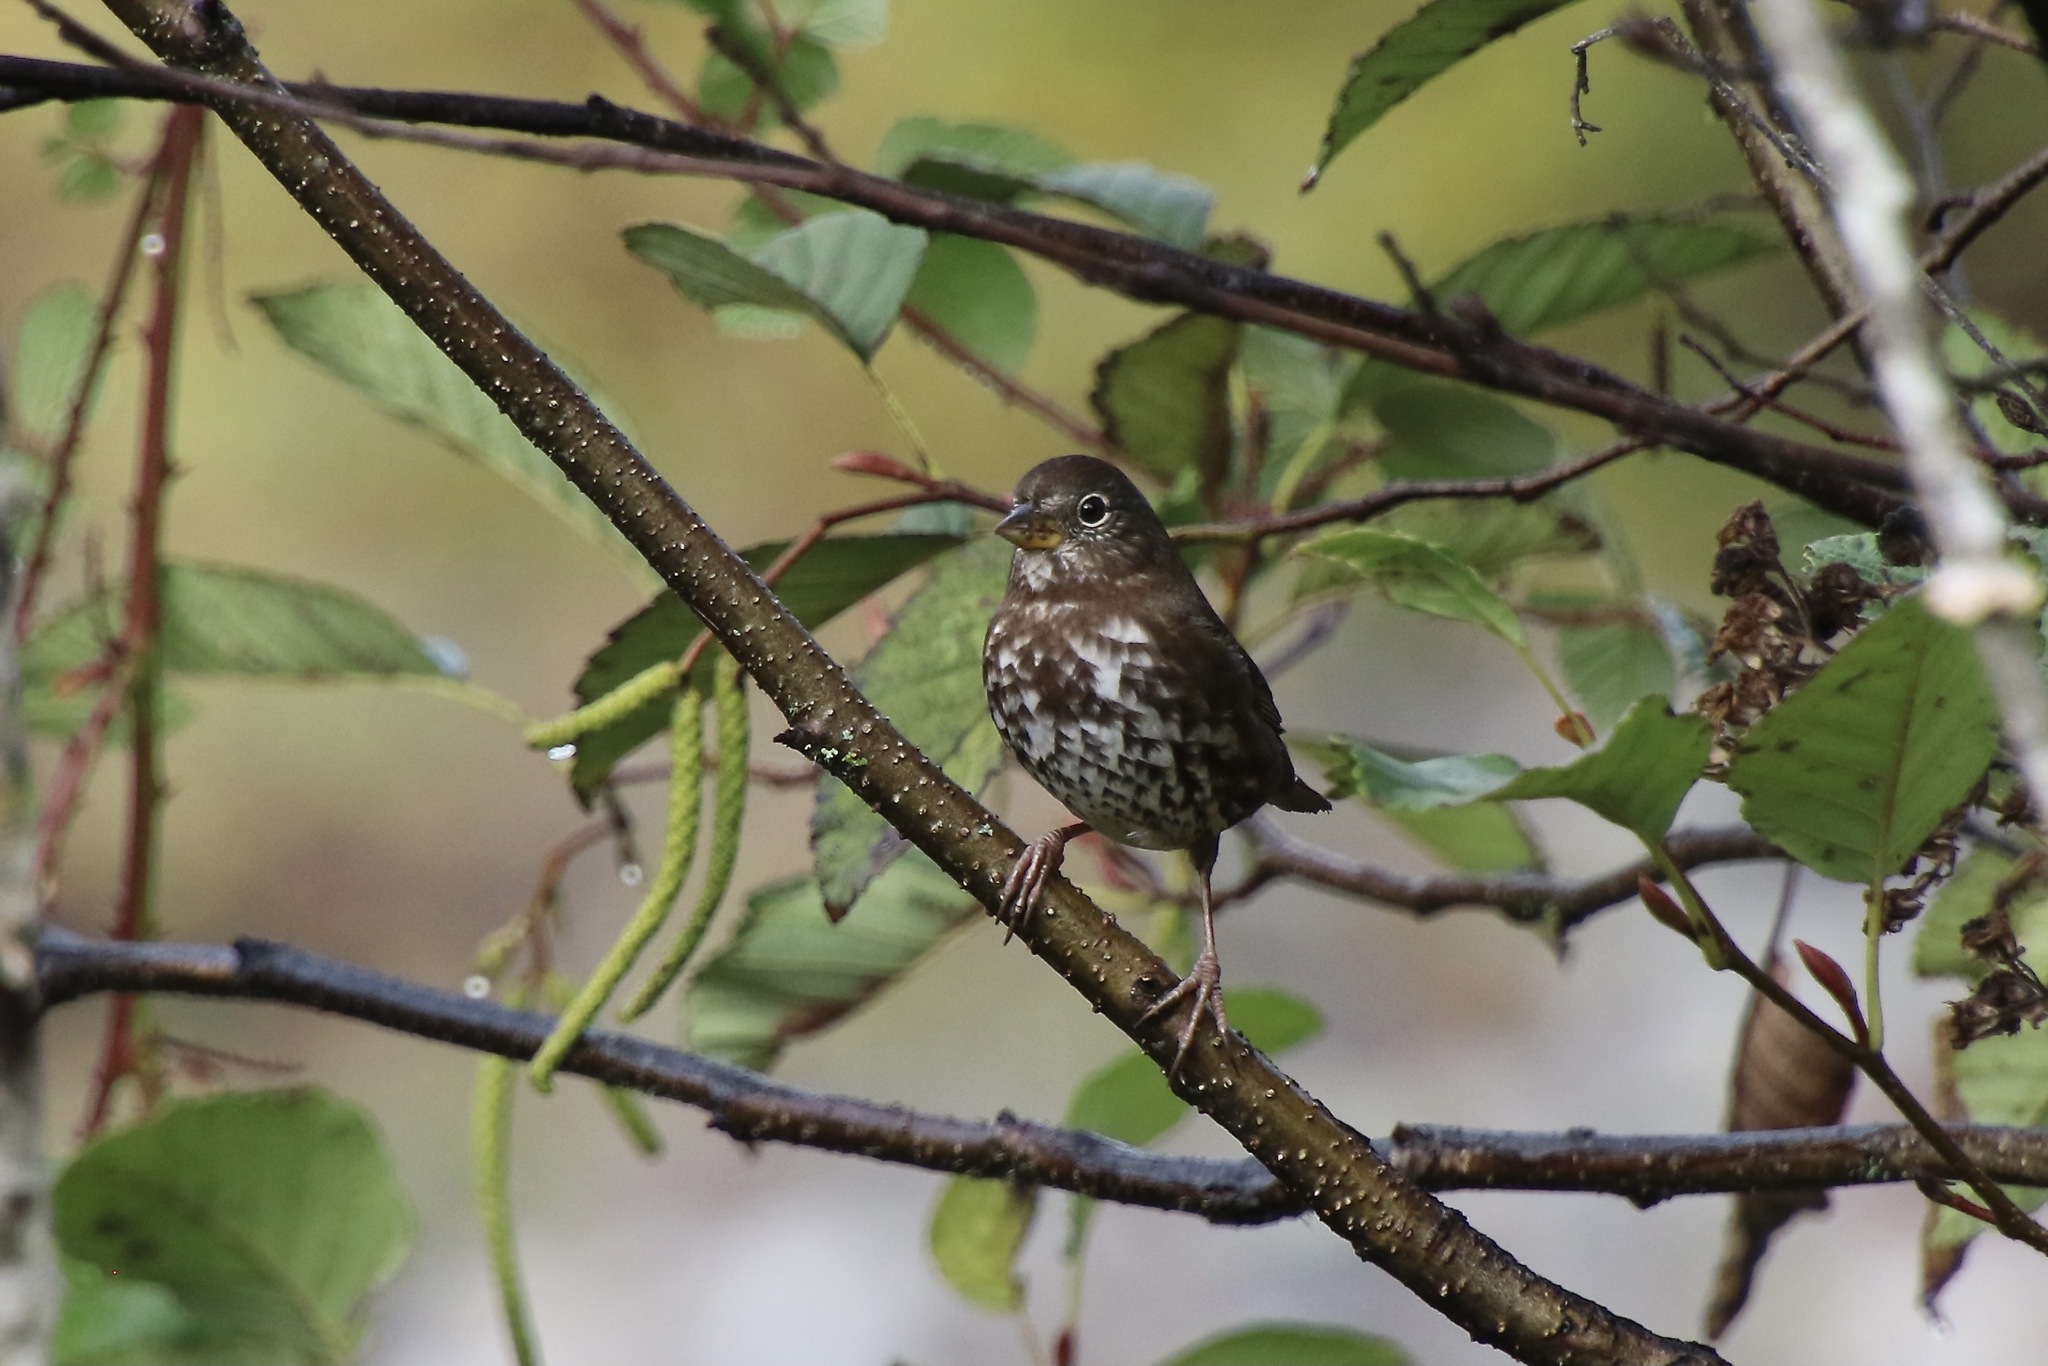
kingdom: Animalia
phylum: Chordata
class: Aves
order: Passeriformes
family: Passerellidae
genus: Passerella
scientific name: Passerella iliaca
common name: Fox sparrow
